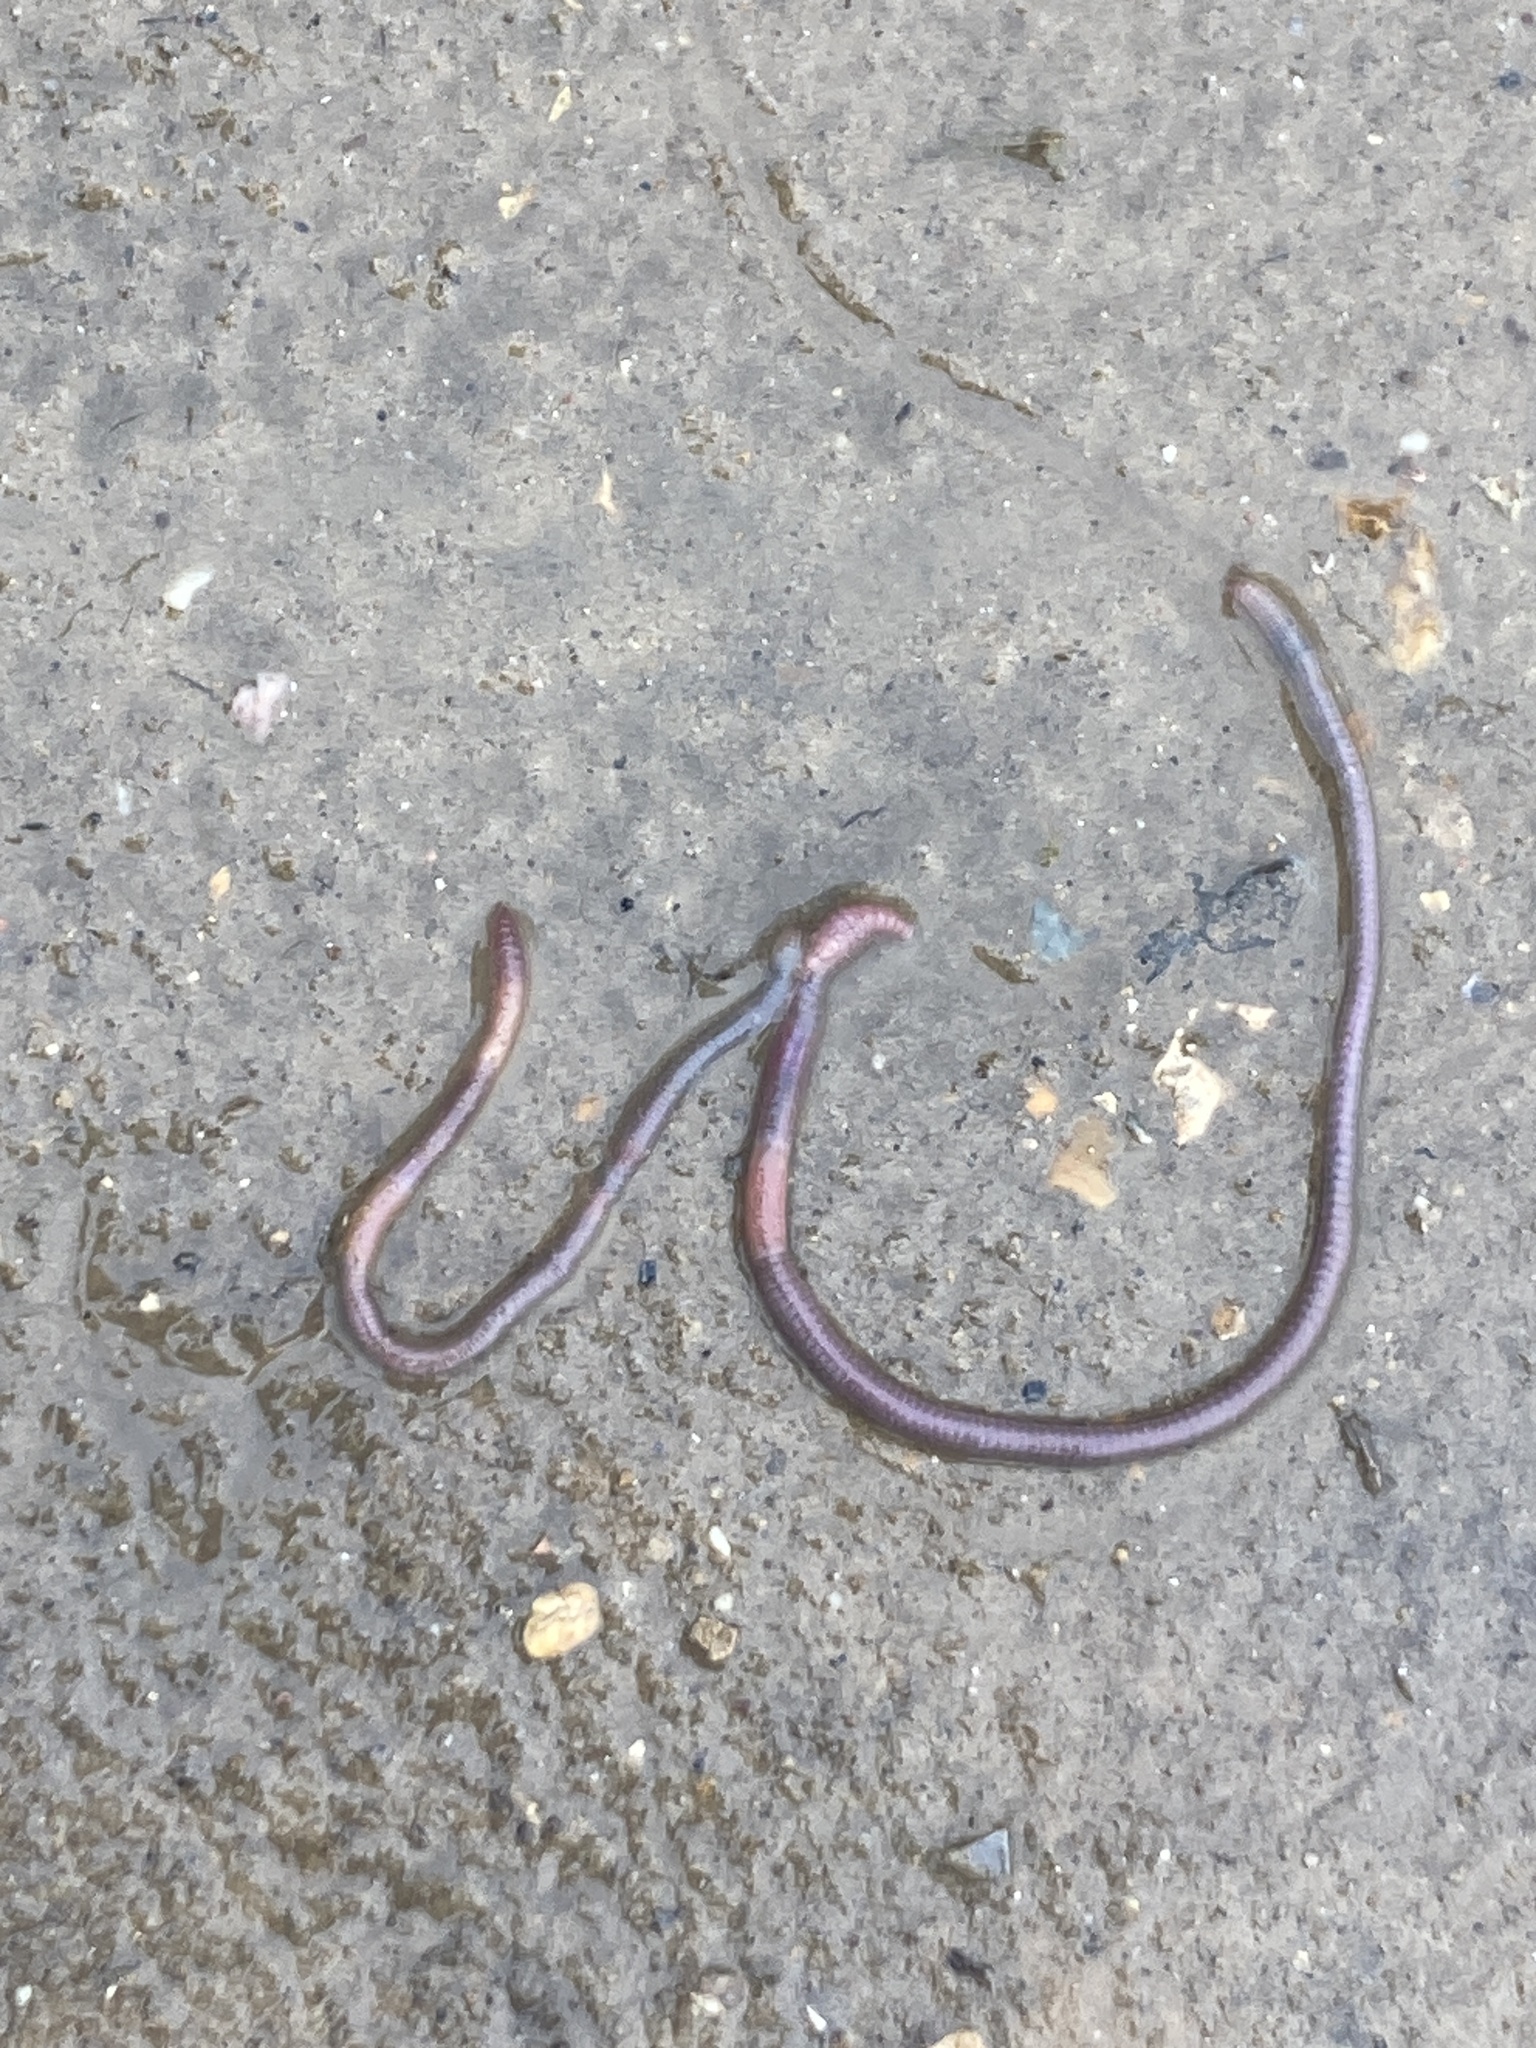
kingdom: Animalia
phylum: Annelida
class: Clitellata
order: Crassiclitellata
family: Lumbricidae
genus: Aporrectodea
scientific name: Aporrectodea caliginosa
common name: Grey worm
